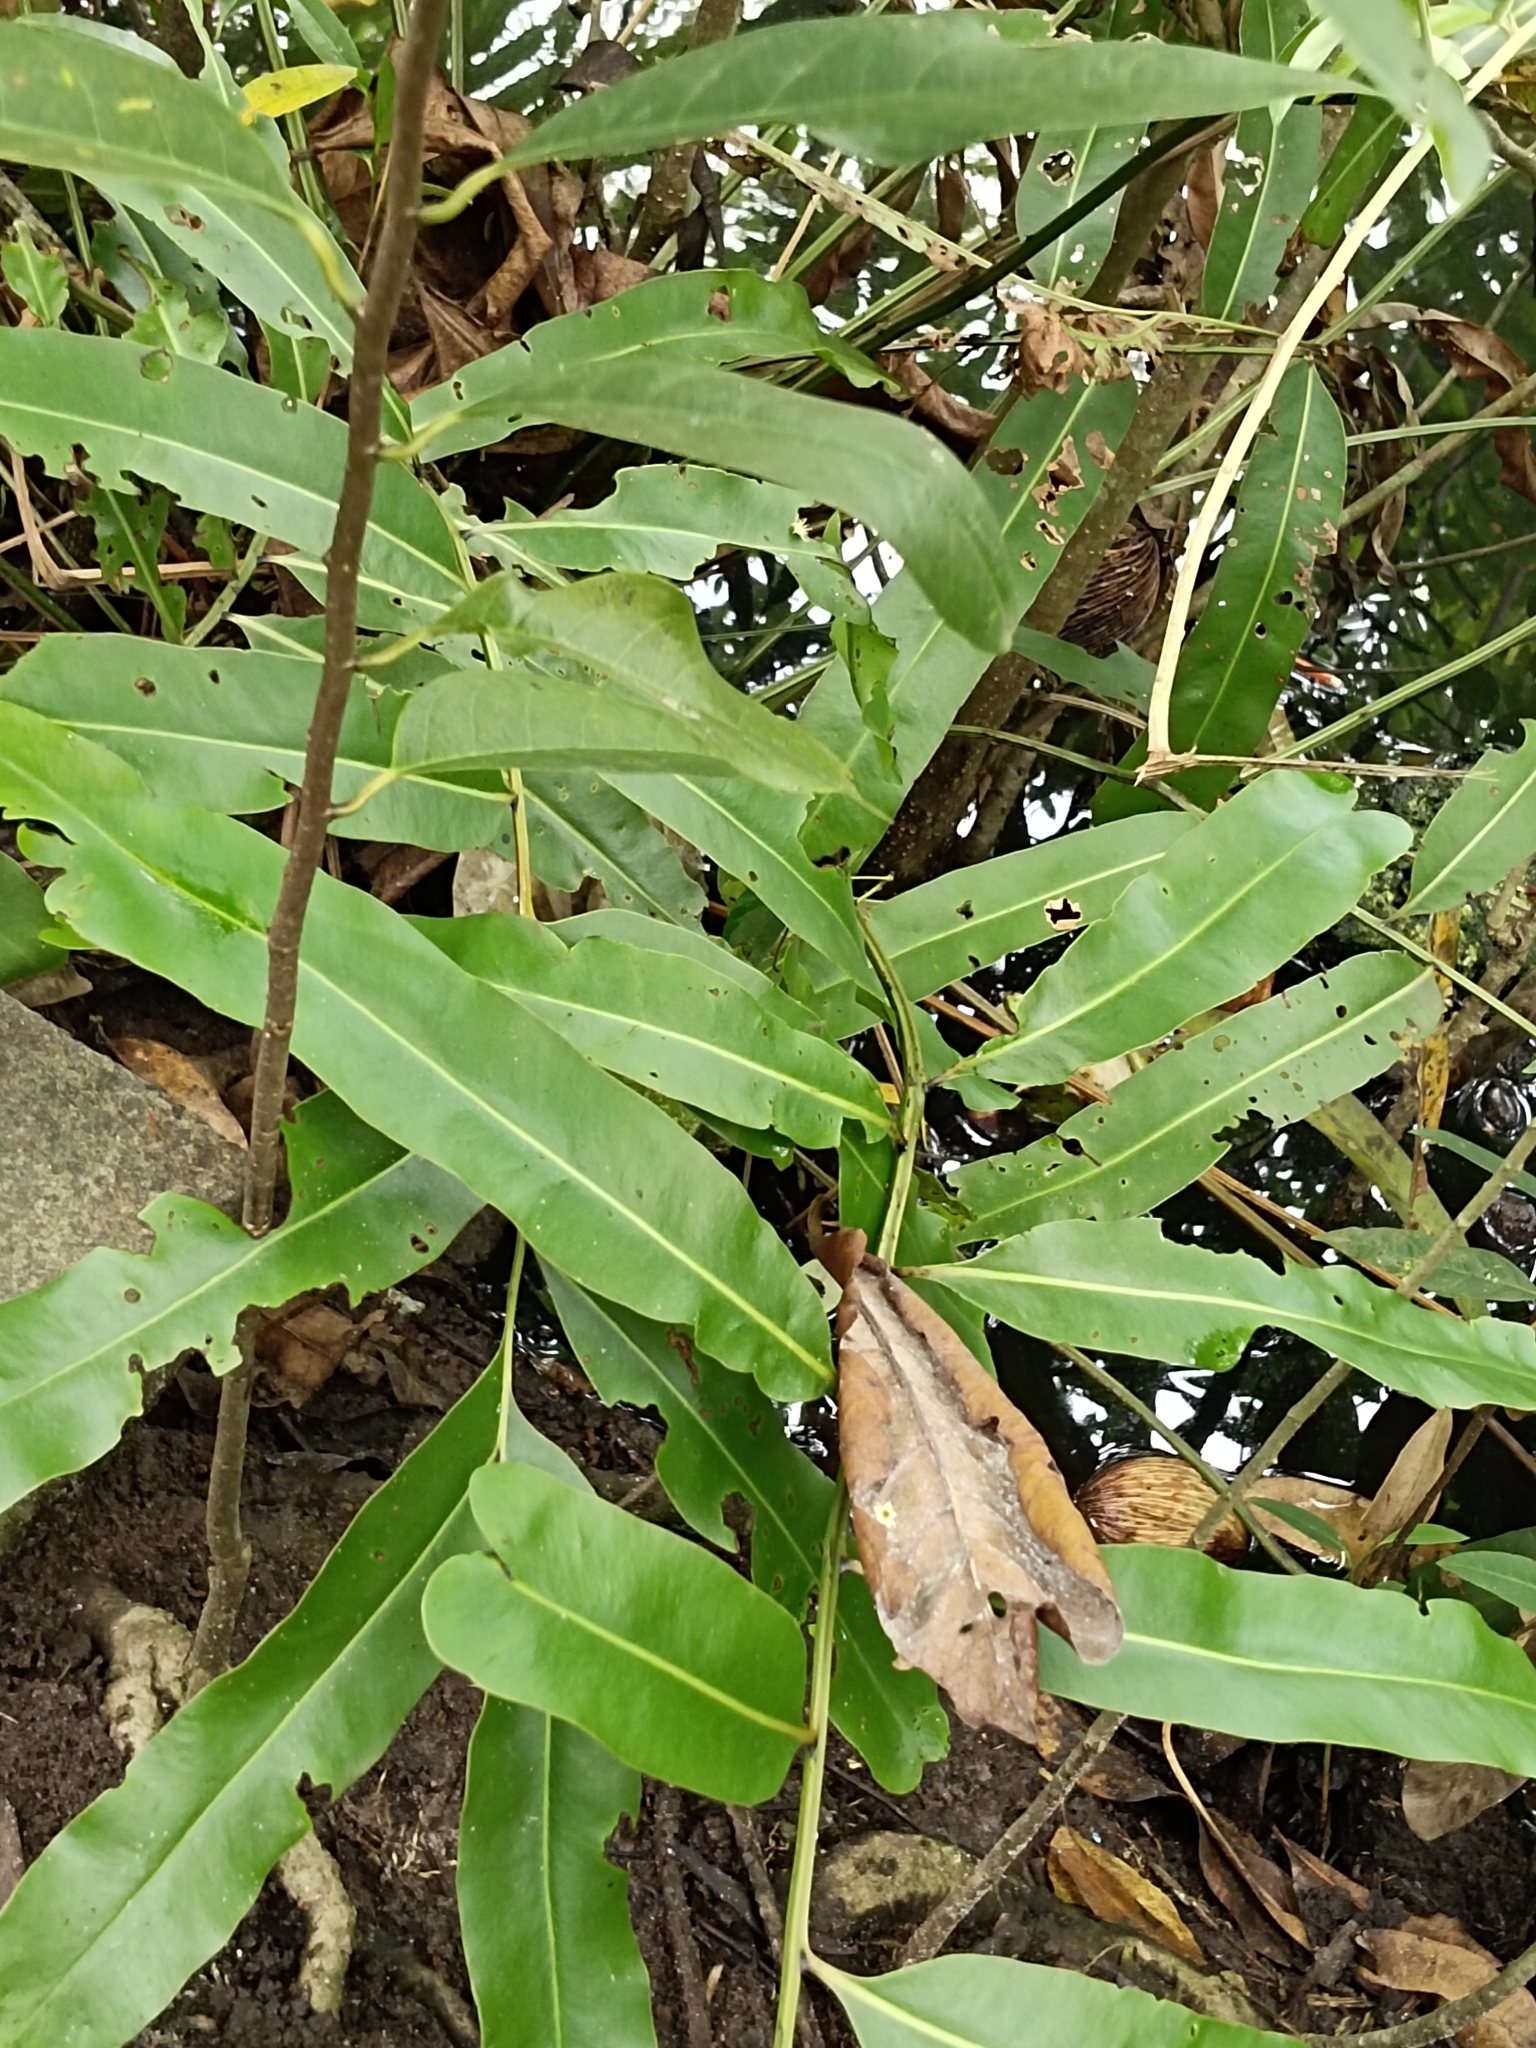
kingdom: Plantae
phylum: Tracheophyta
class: Polypodiopsida
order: Polypodiales
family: Pteridaceae
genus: Acrostichum
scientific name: Acrostichum aureum
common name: Leather fern
